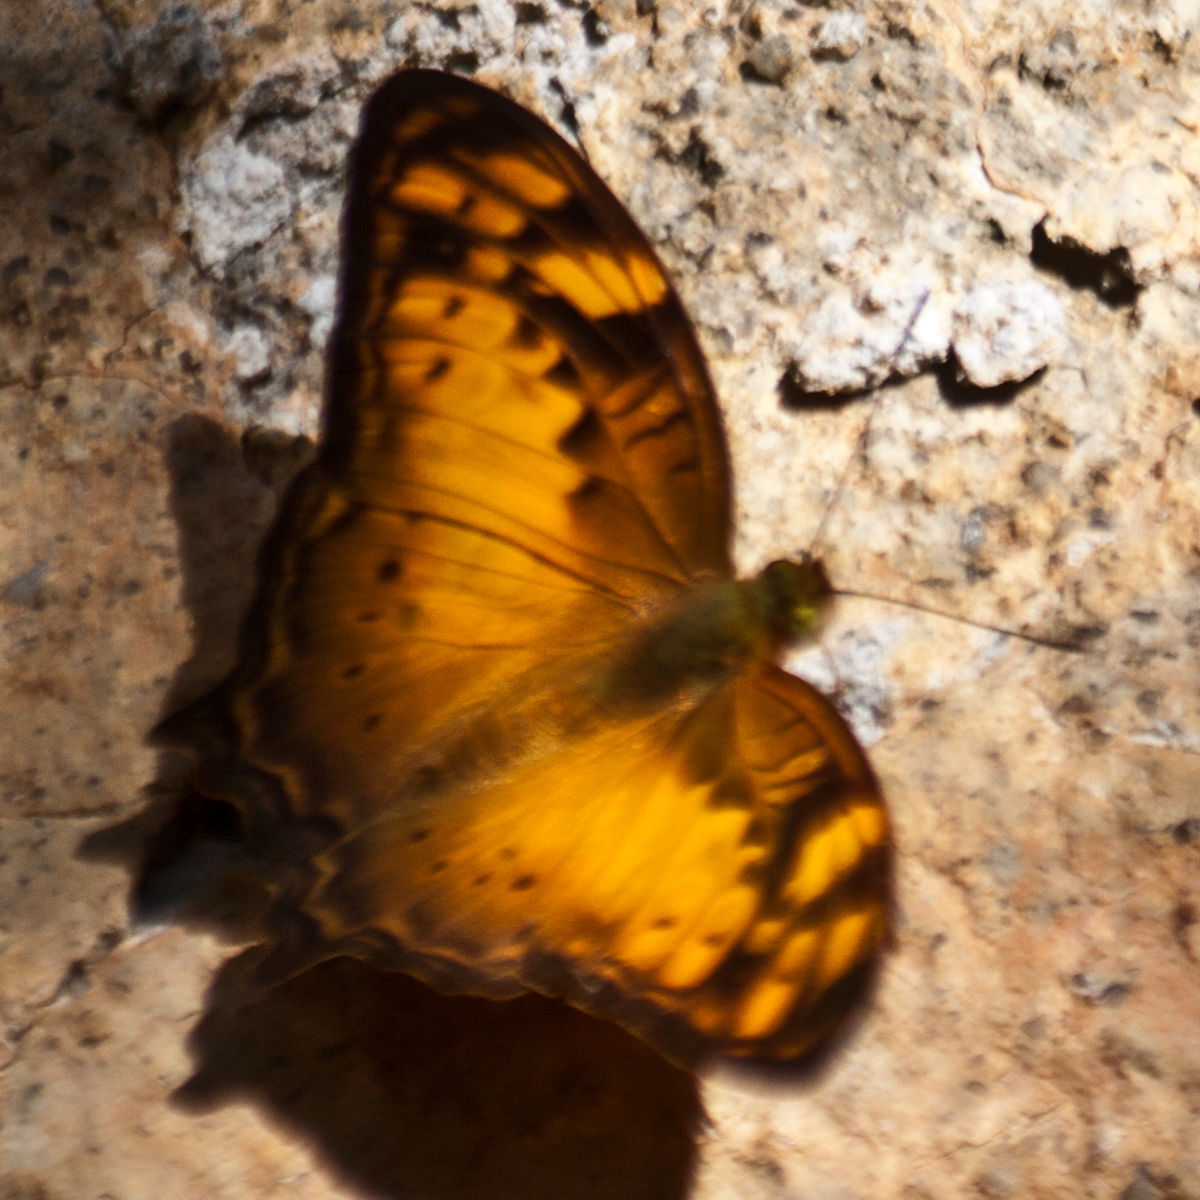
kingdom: Animalia
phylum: Arthropoda
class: Insecta
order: Lepidoptera
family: Nymphalidae
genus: Vagrans
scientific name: Vagrans sinha
